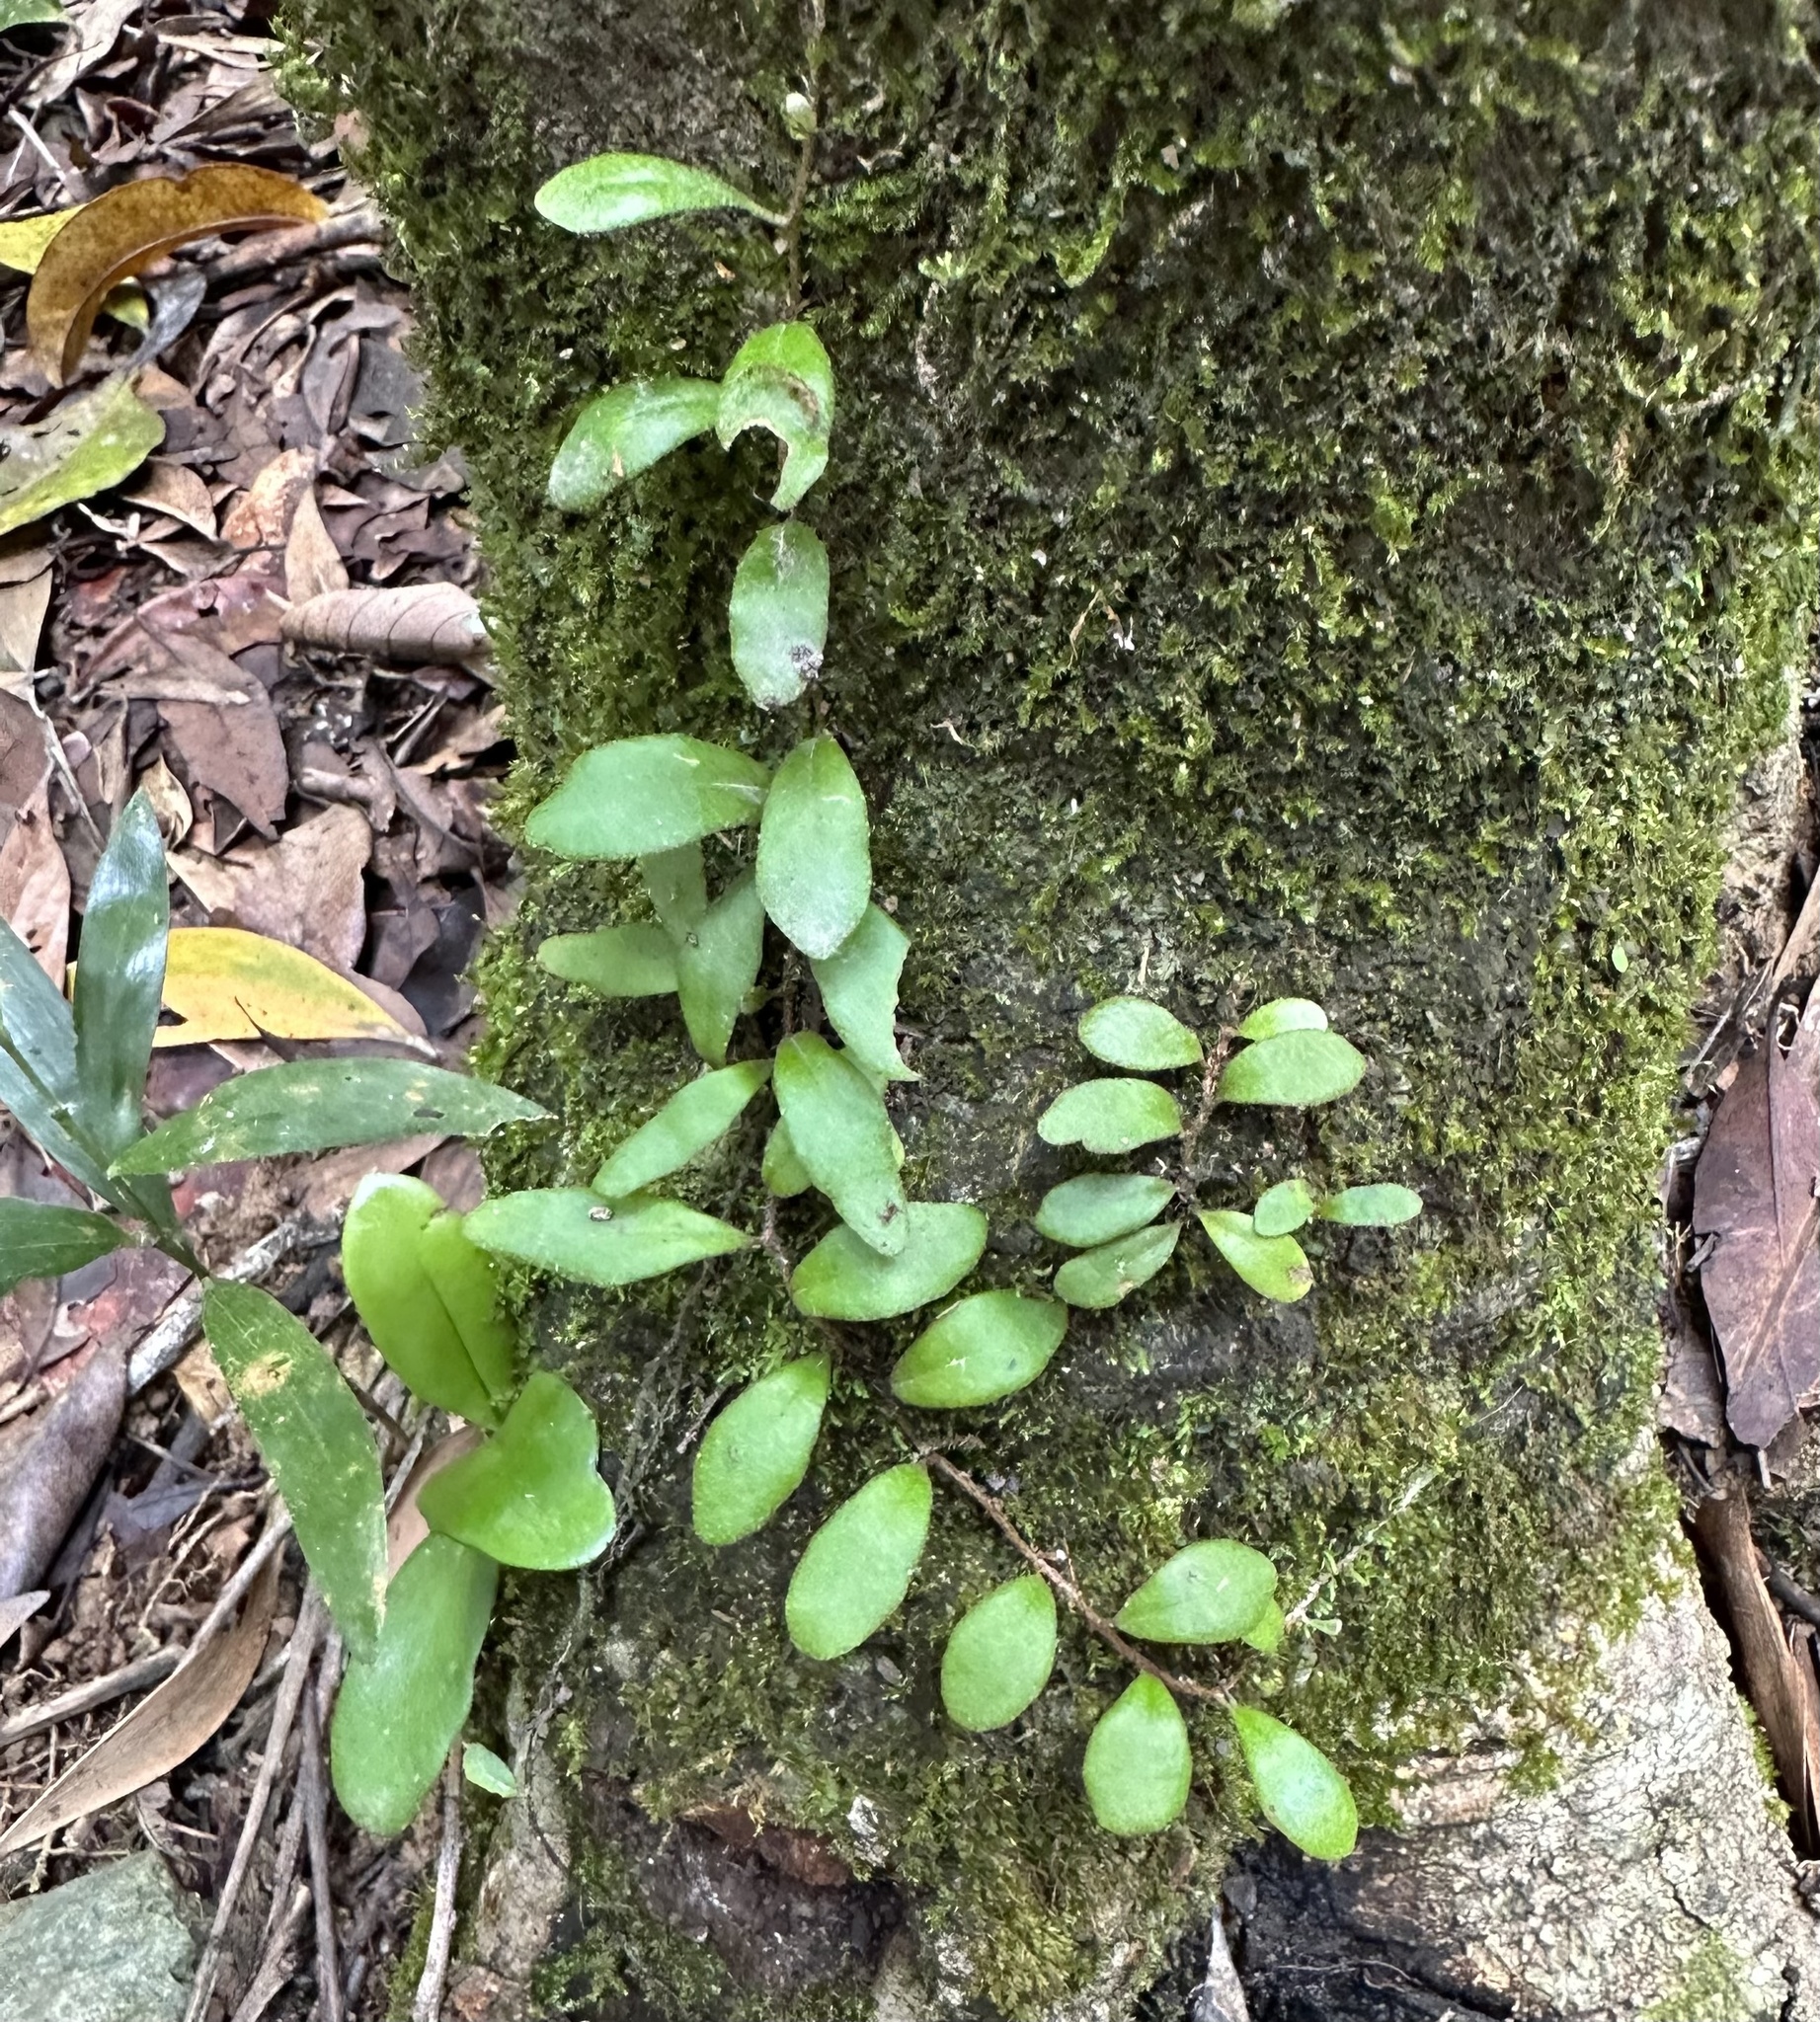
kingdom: Plantae
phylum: Tracheophyta
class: Polypodiopsida
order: Polypodiales
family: Polypodiaceae
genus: Pyrrosia
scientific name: Pyrrosia rupestris
